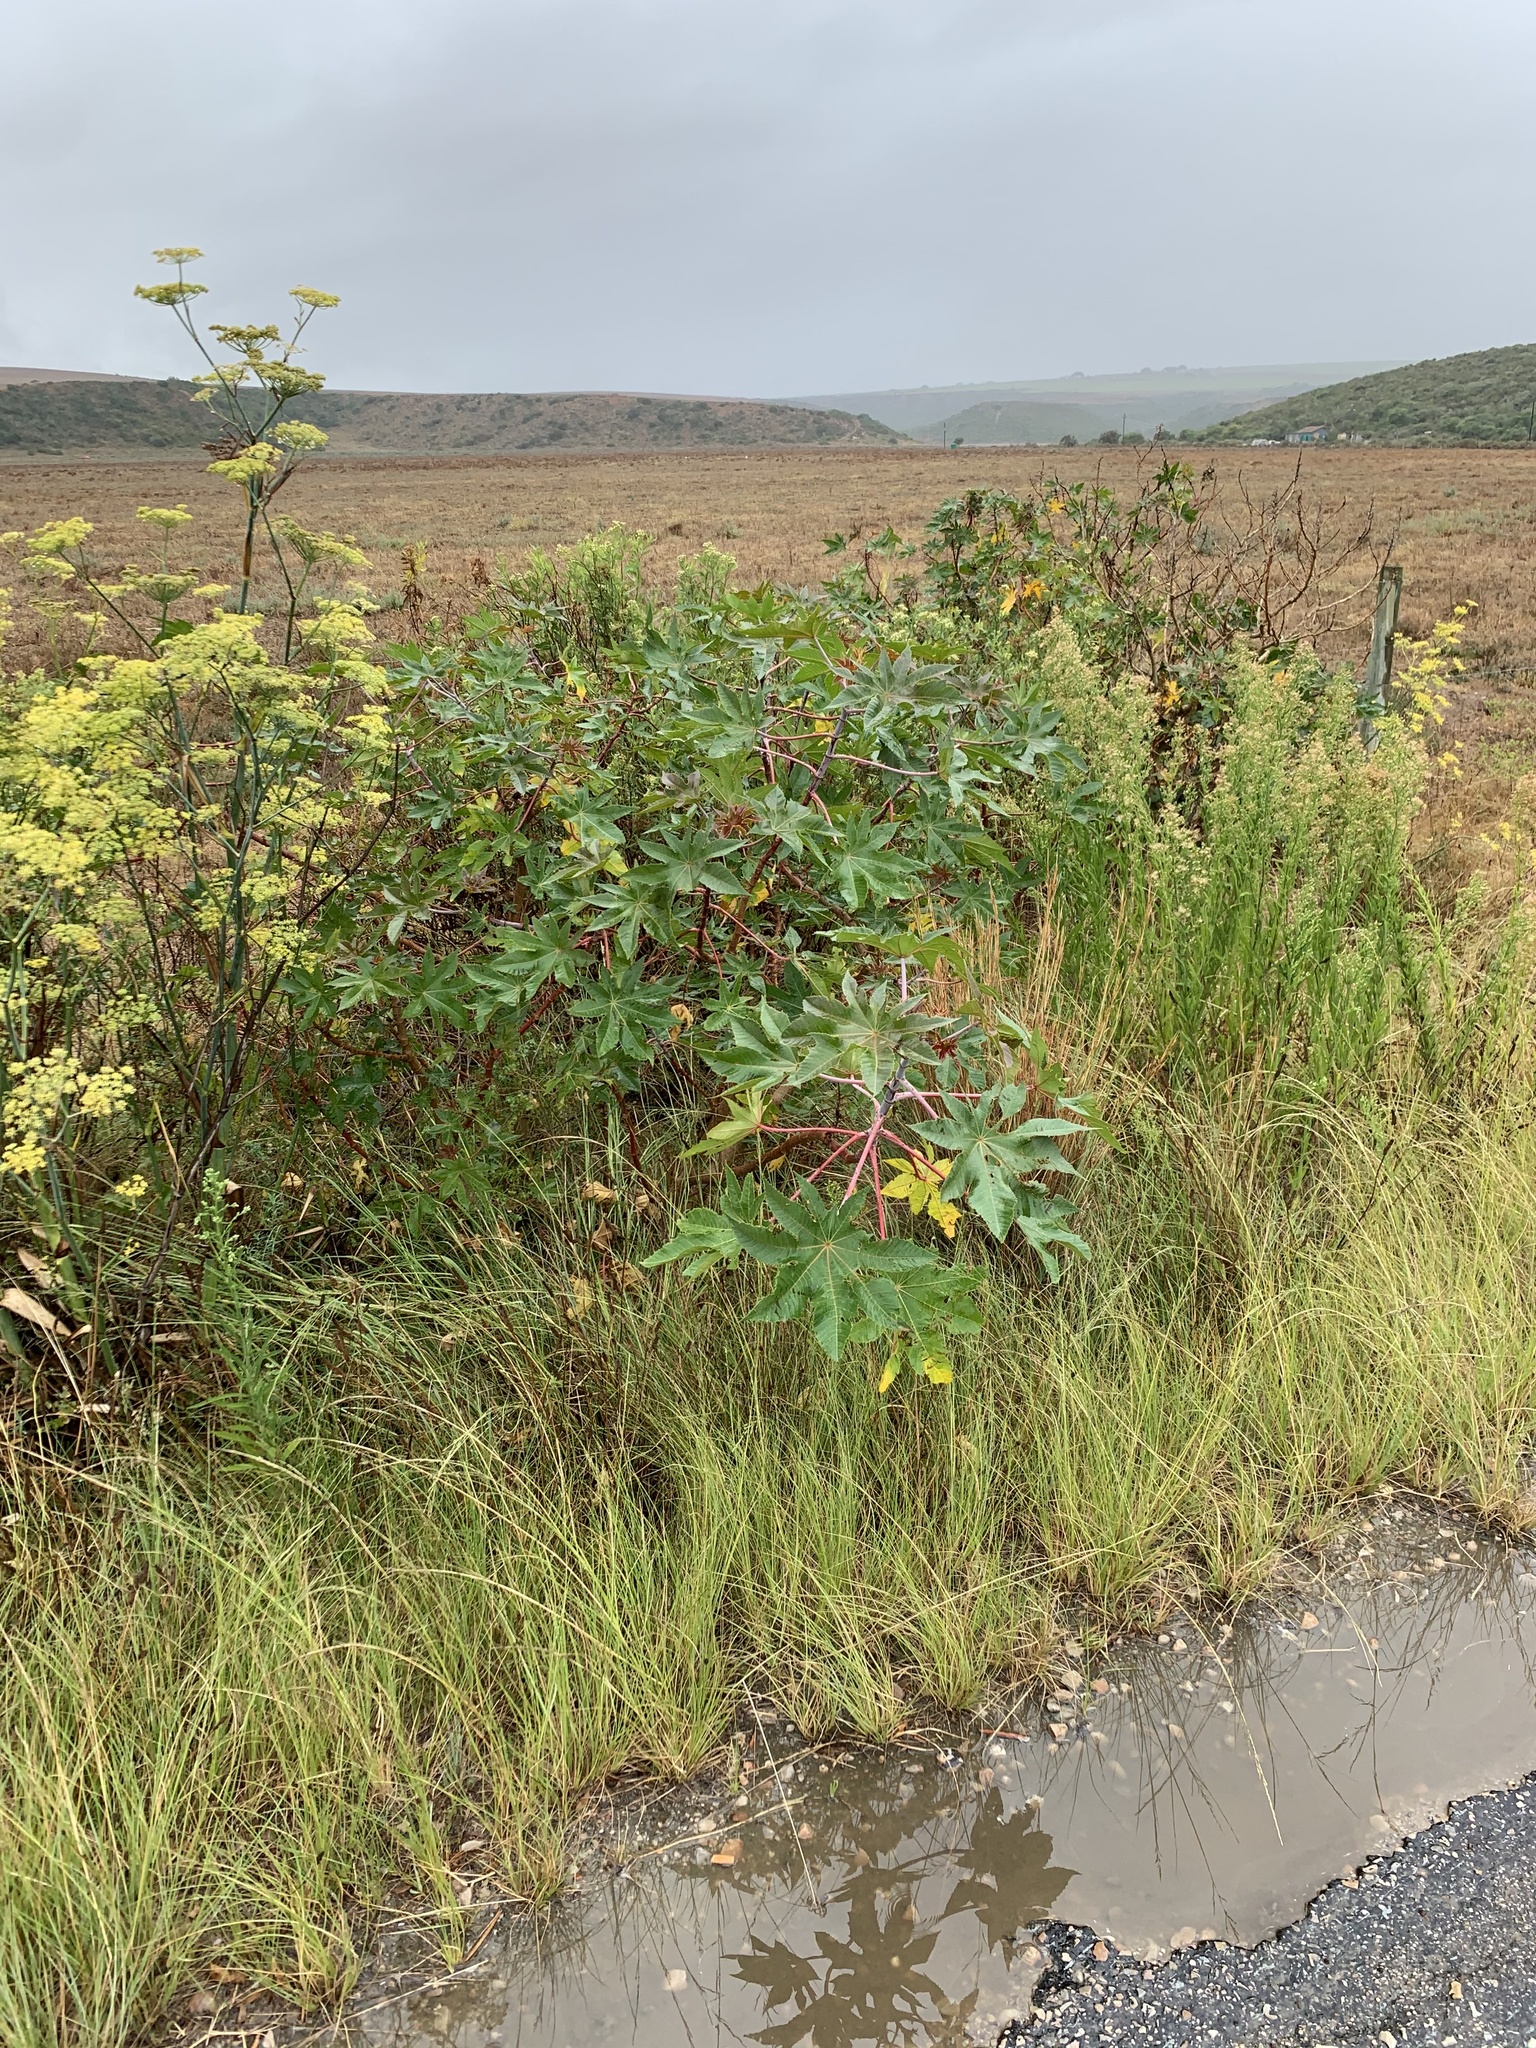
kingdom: Plantae
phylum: Tracheophyta
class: Magnoliopsida
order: Malpighiales
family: Euphorbiaceae
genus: Ricinus
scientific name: Ricinus communis
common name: Castor-oil-plant
